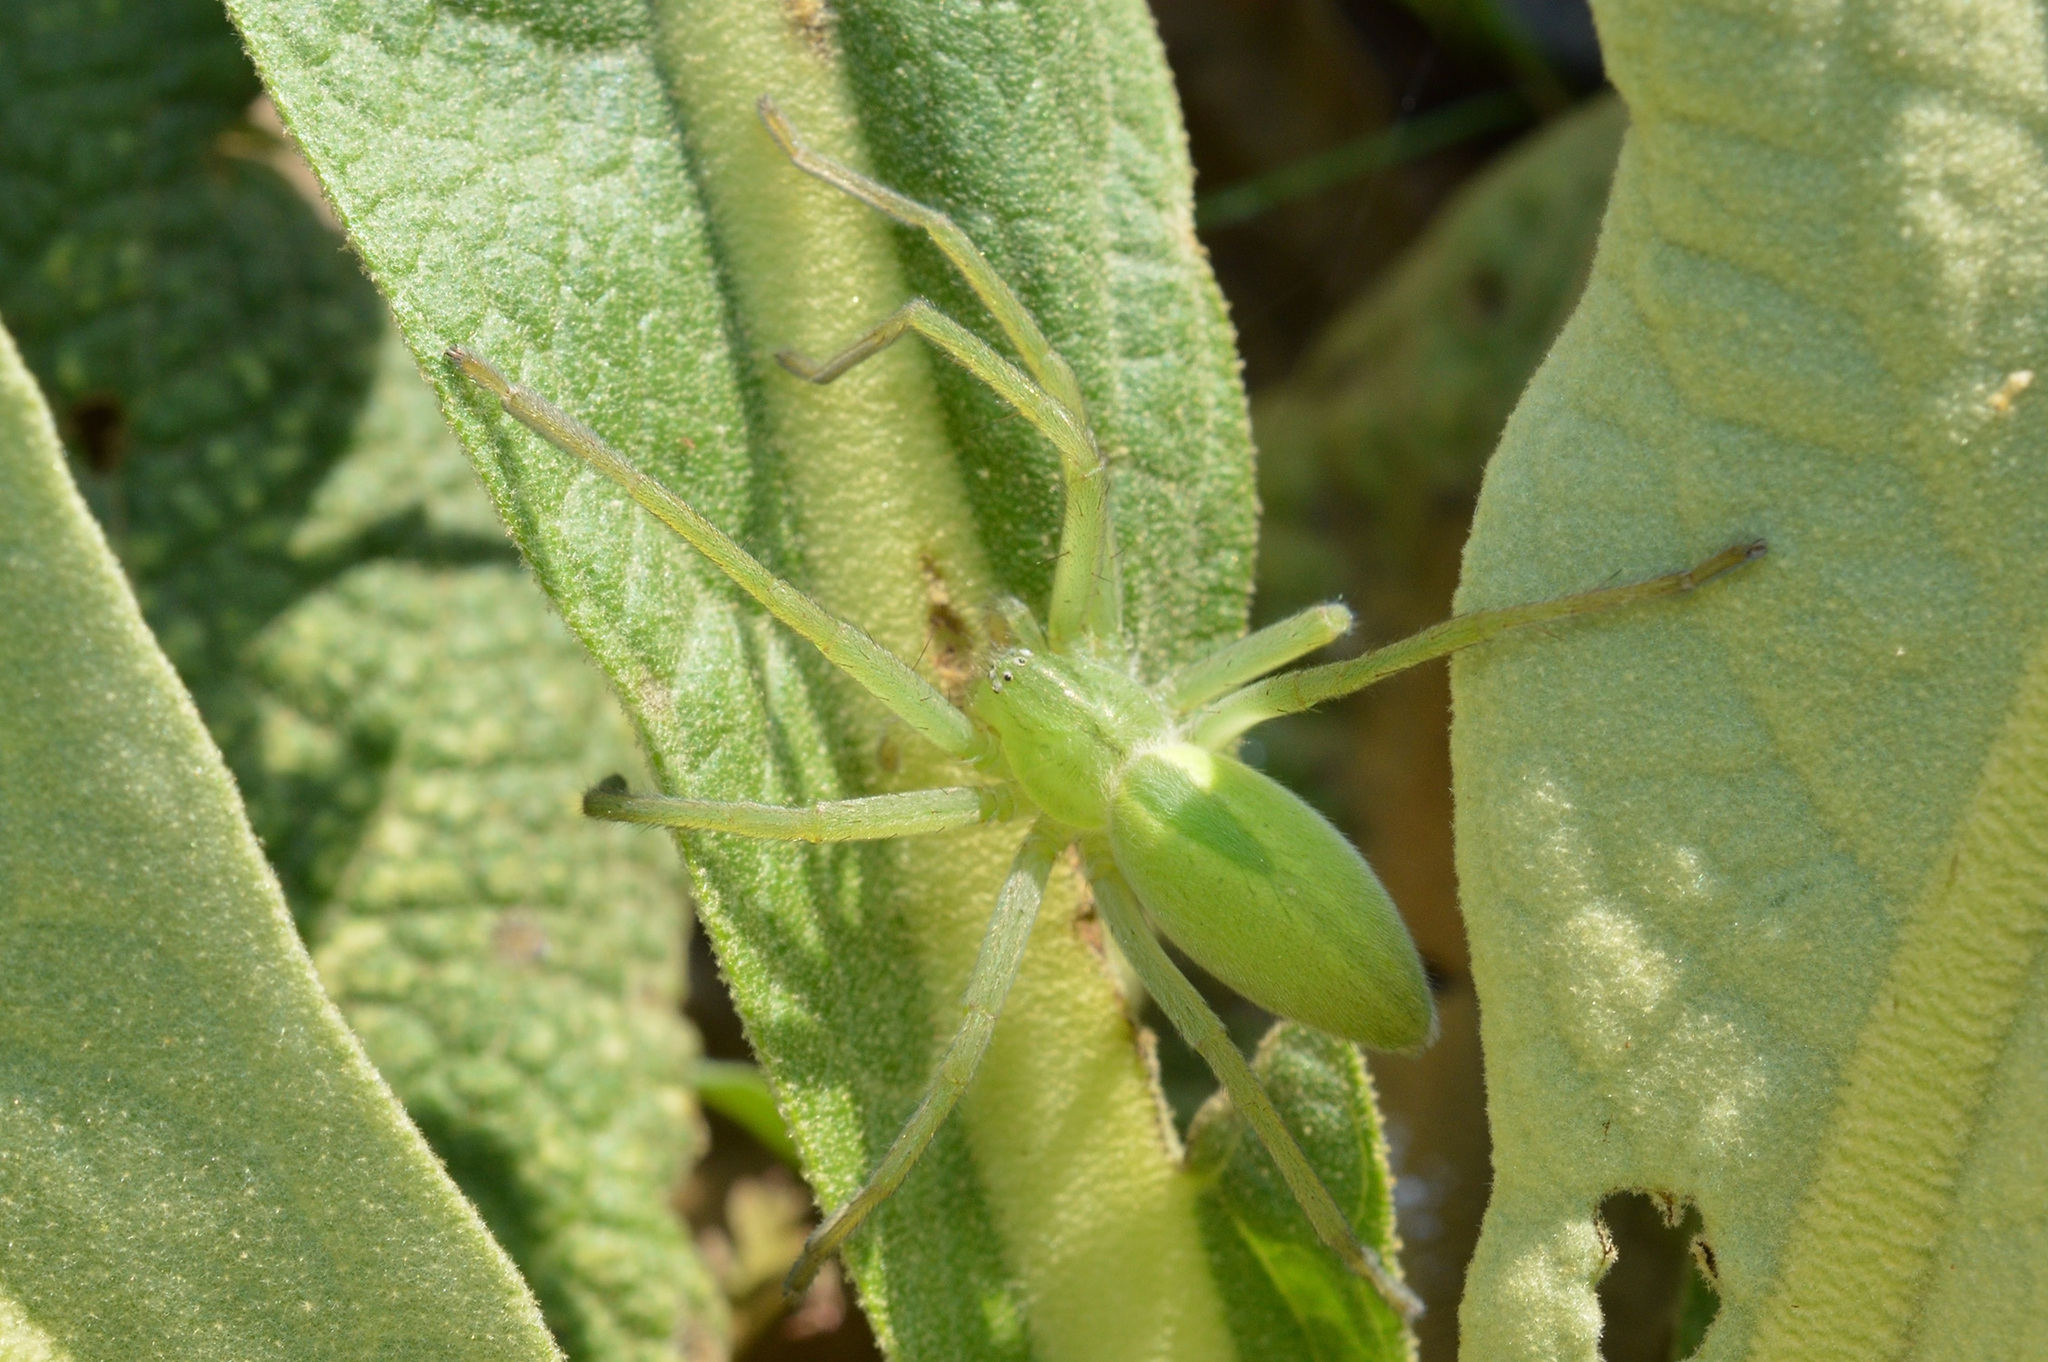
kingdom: Animalia
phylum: Arthropoda
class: Arachnida
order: Araneae
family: Sparassidae
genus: Micrommata
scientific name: Micrommata virescens
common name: Green spider
